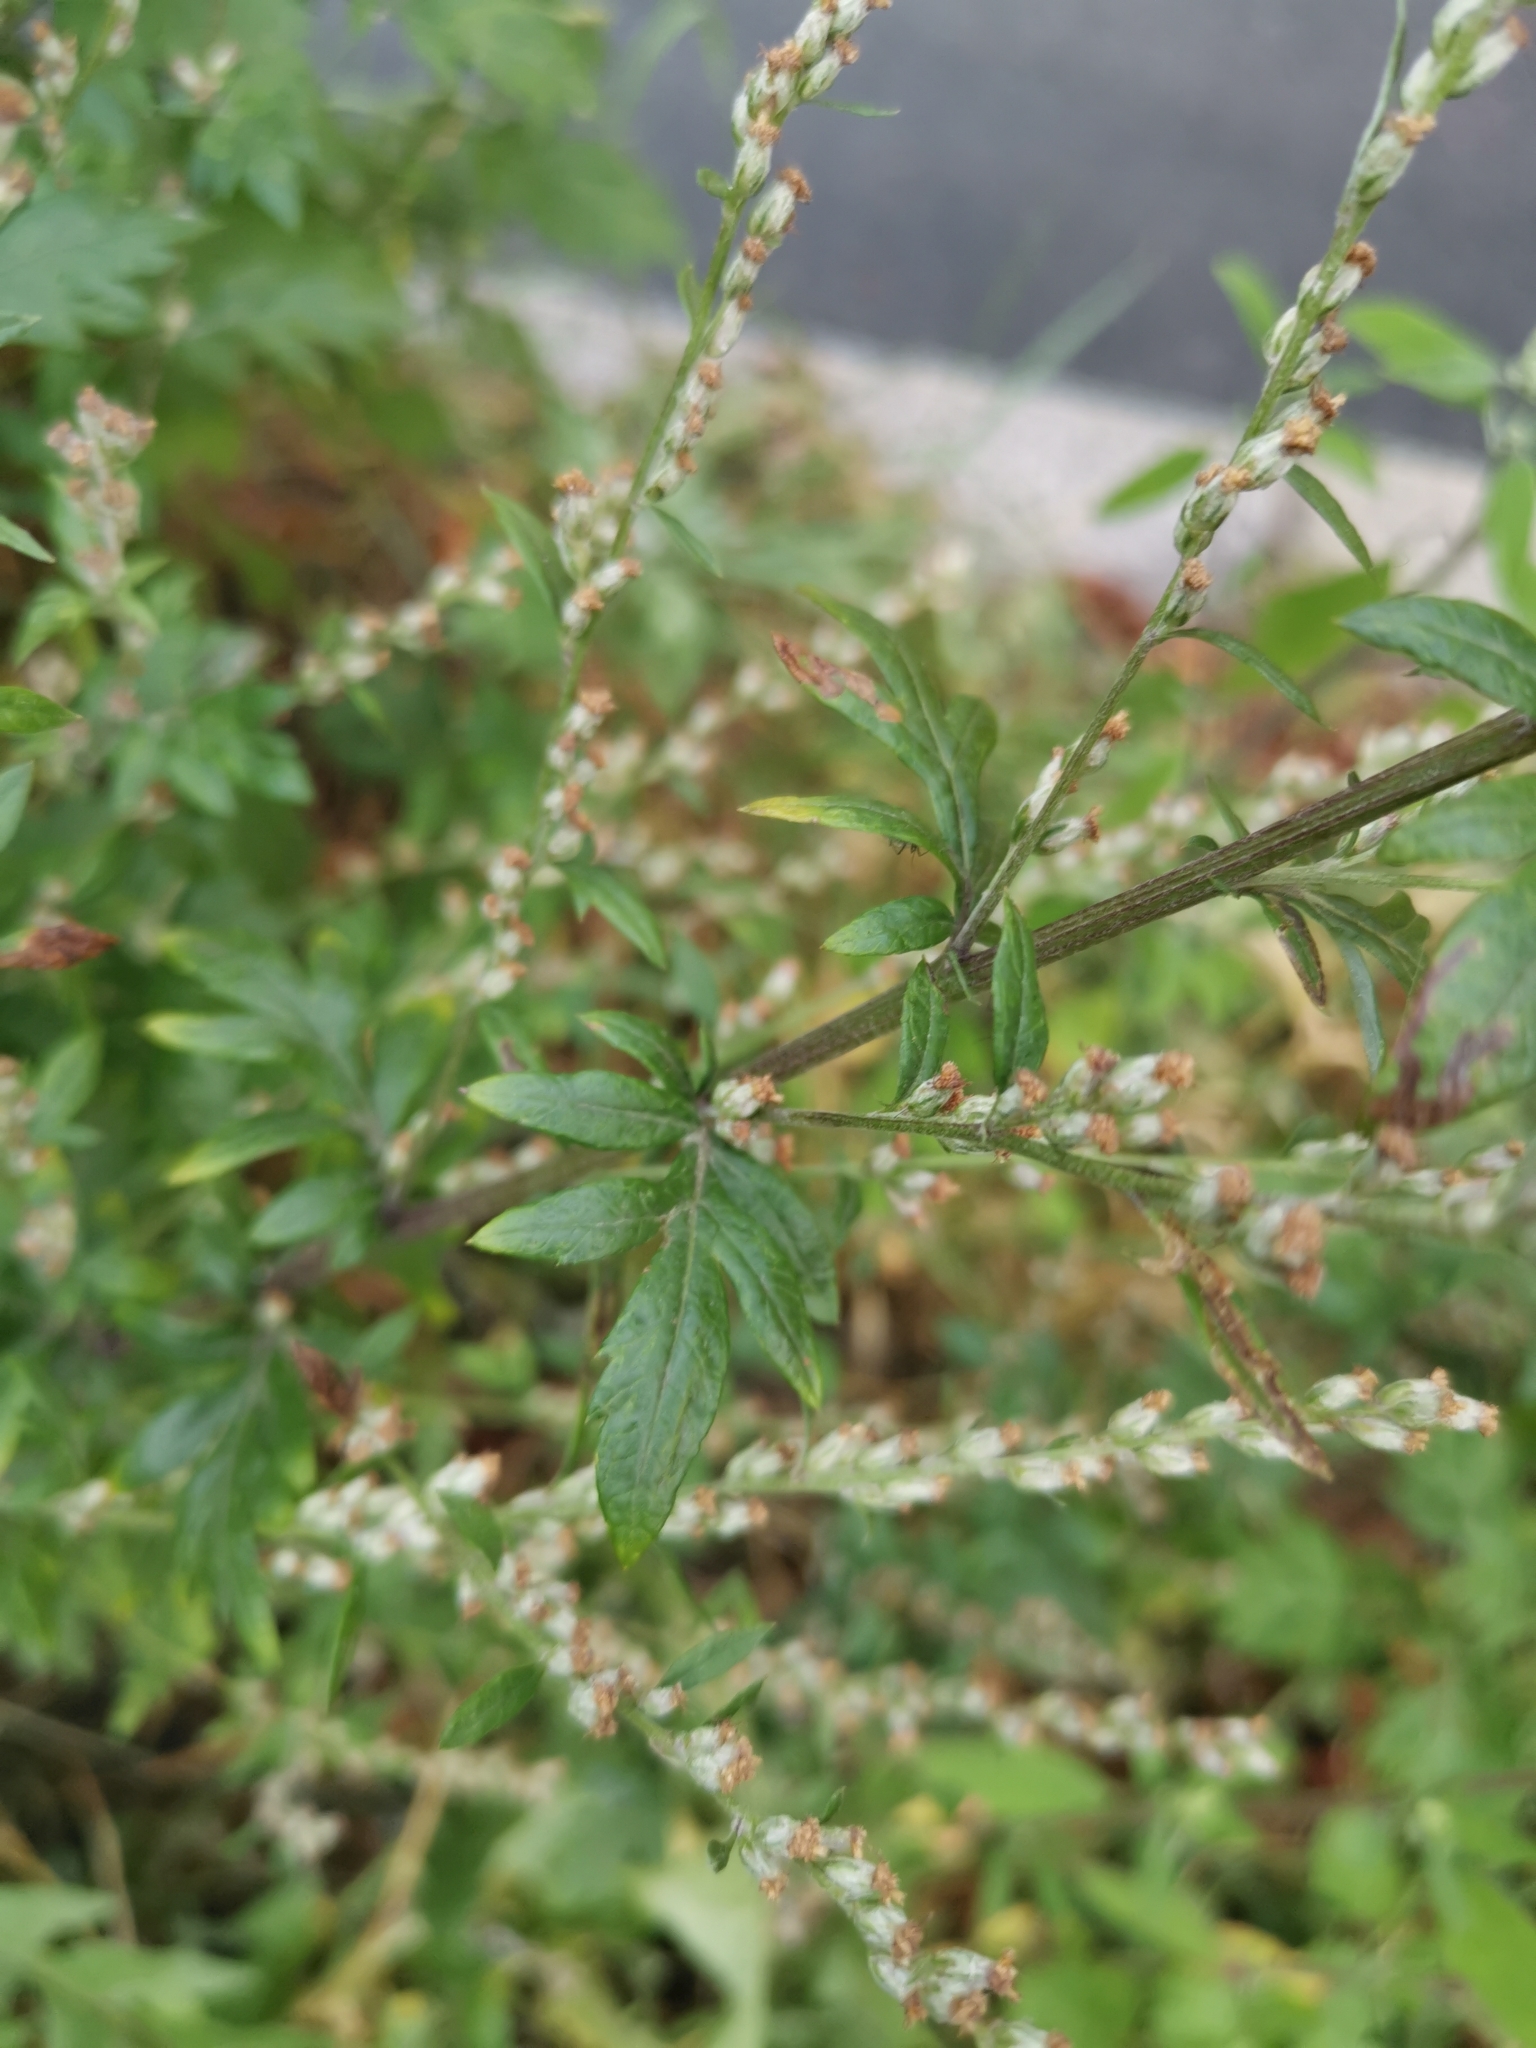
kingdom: Plantae
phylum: Tracheophyta
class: Magnoliopsida
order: Asterales
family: Asteraceae
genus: Artemisia
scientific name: Artemisia vulgaris
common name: Mugwort
